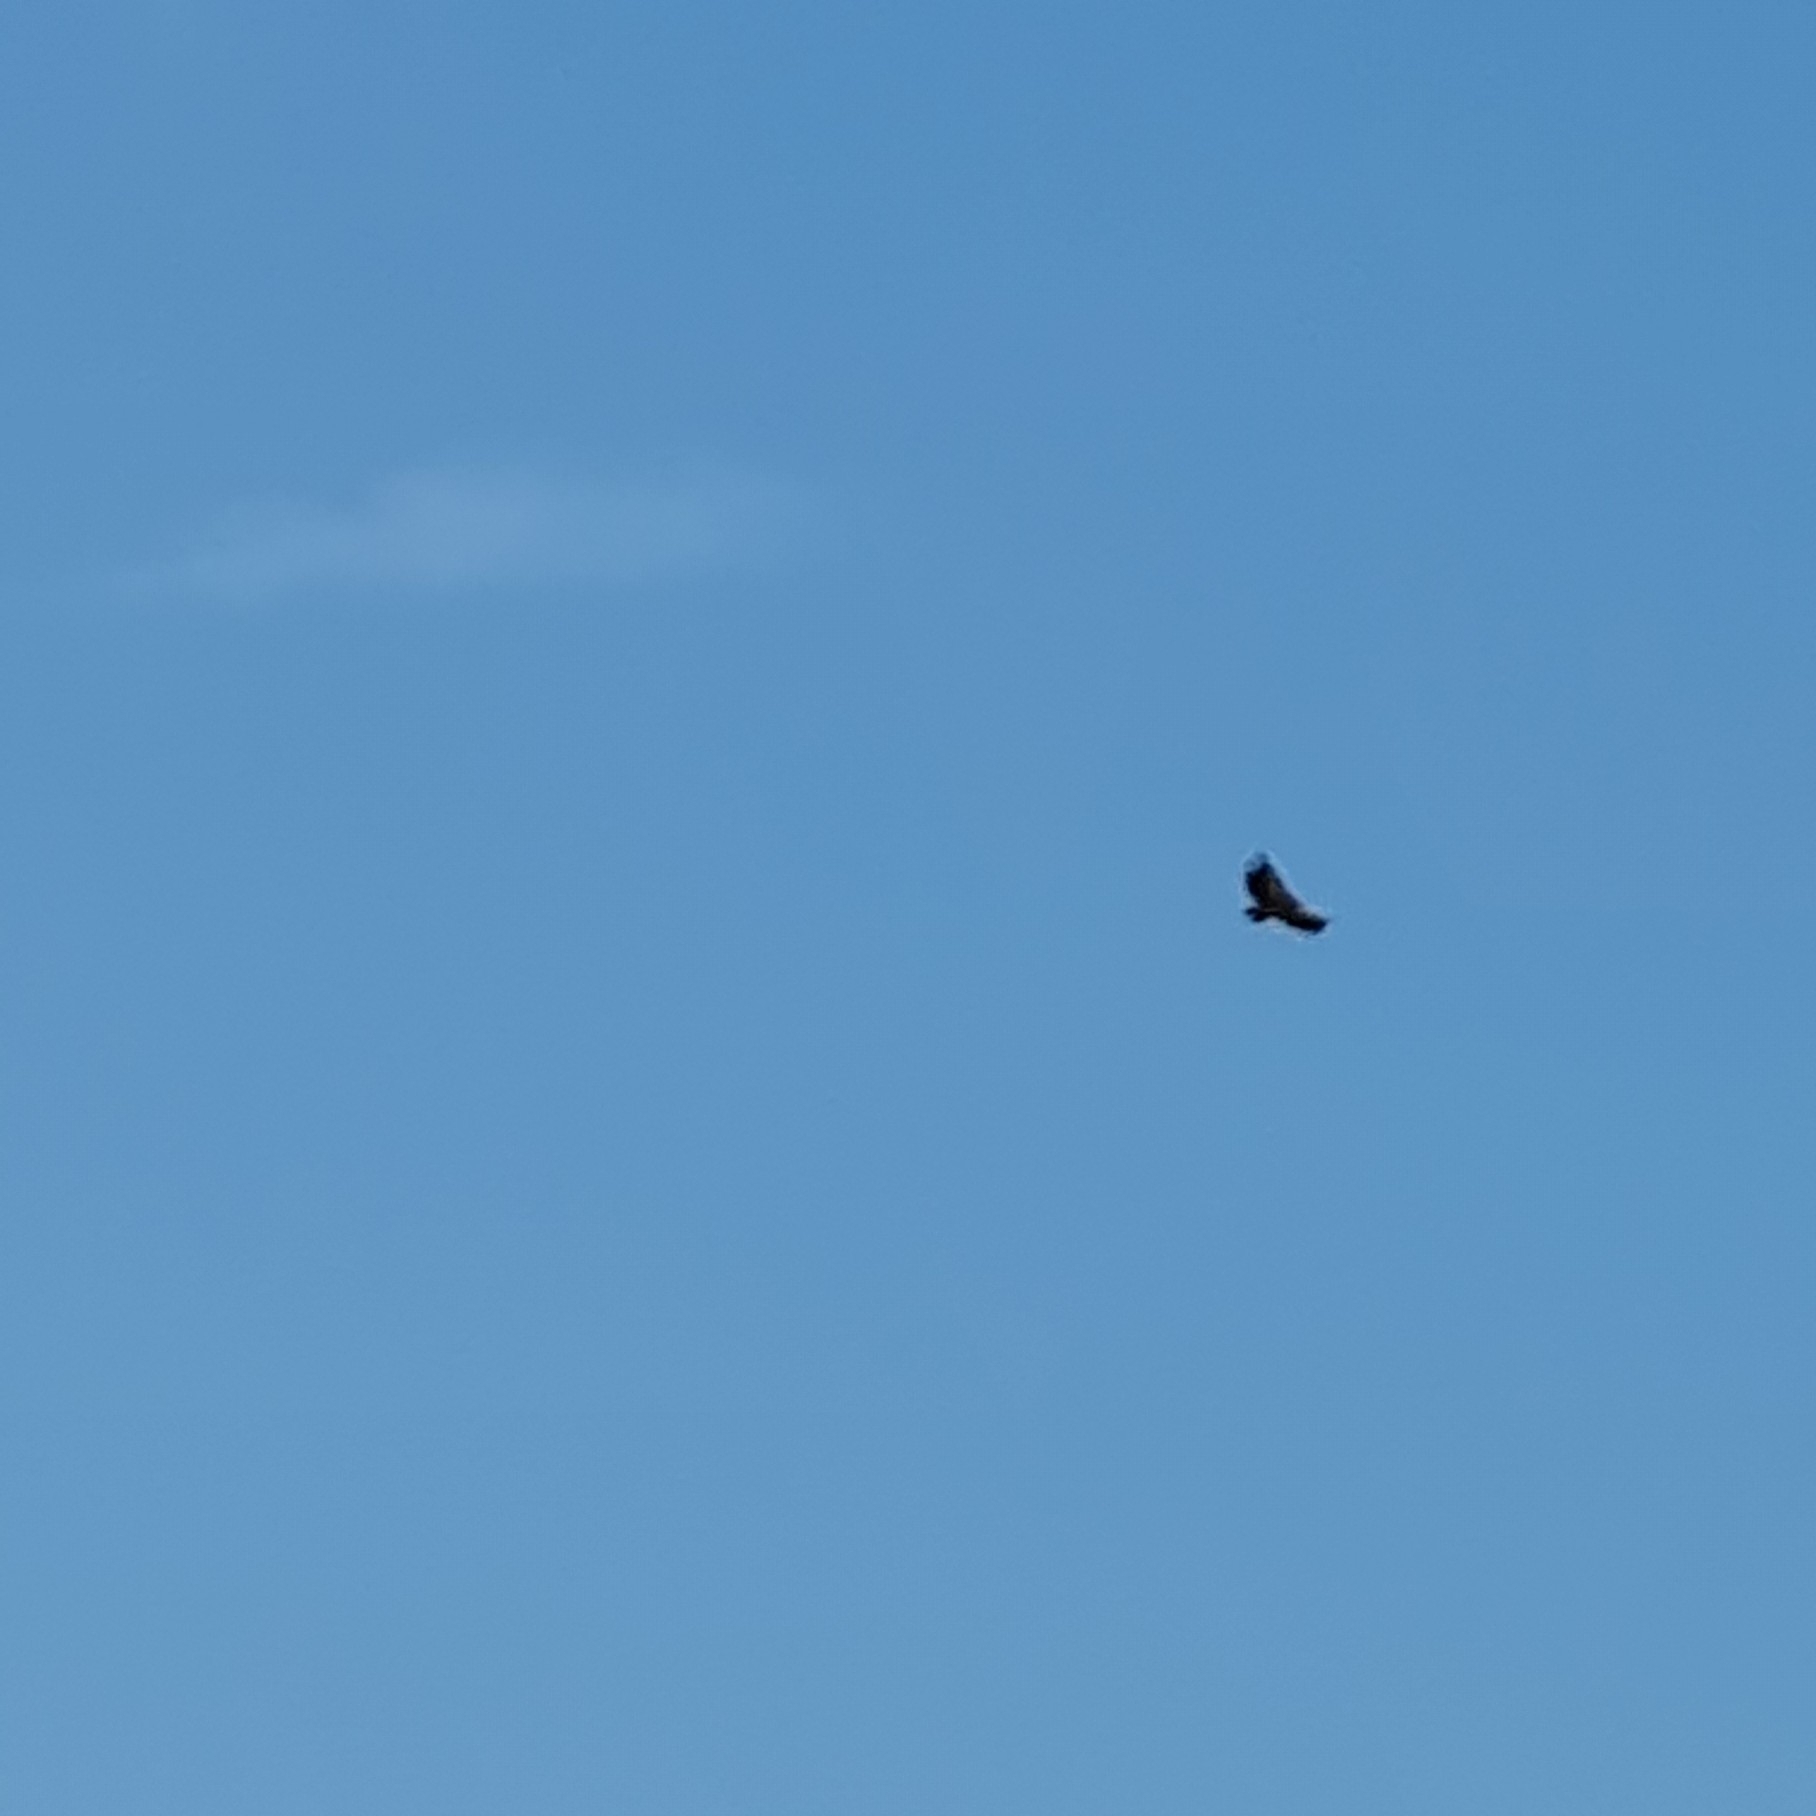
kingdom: Animalia
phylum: Chordata
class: Aves
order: Accipitriformes
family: Accipitridae
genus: Gyps
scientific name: Gyps fulvus
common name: Griffon vulture
